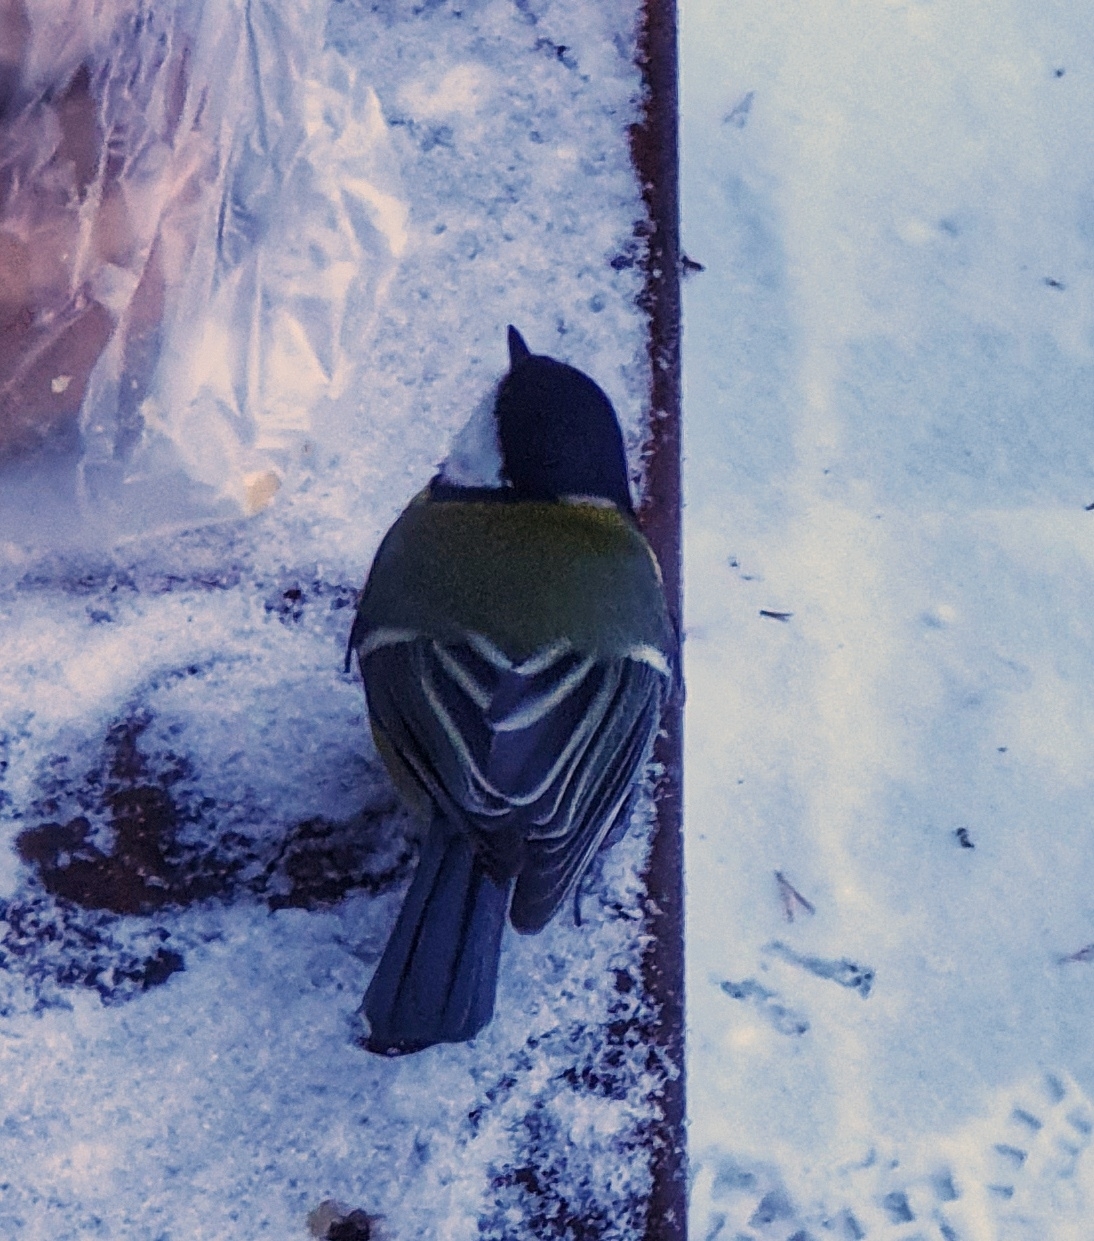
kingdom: Animalia
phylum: Chordata
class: Aves
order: Passeriformes
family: Paridae
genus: Parus
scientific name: Parus major
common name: Great tit
